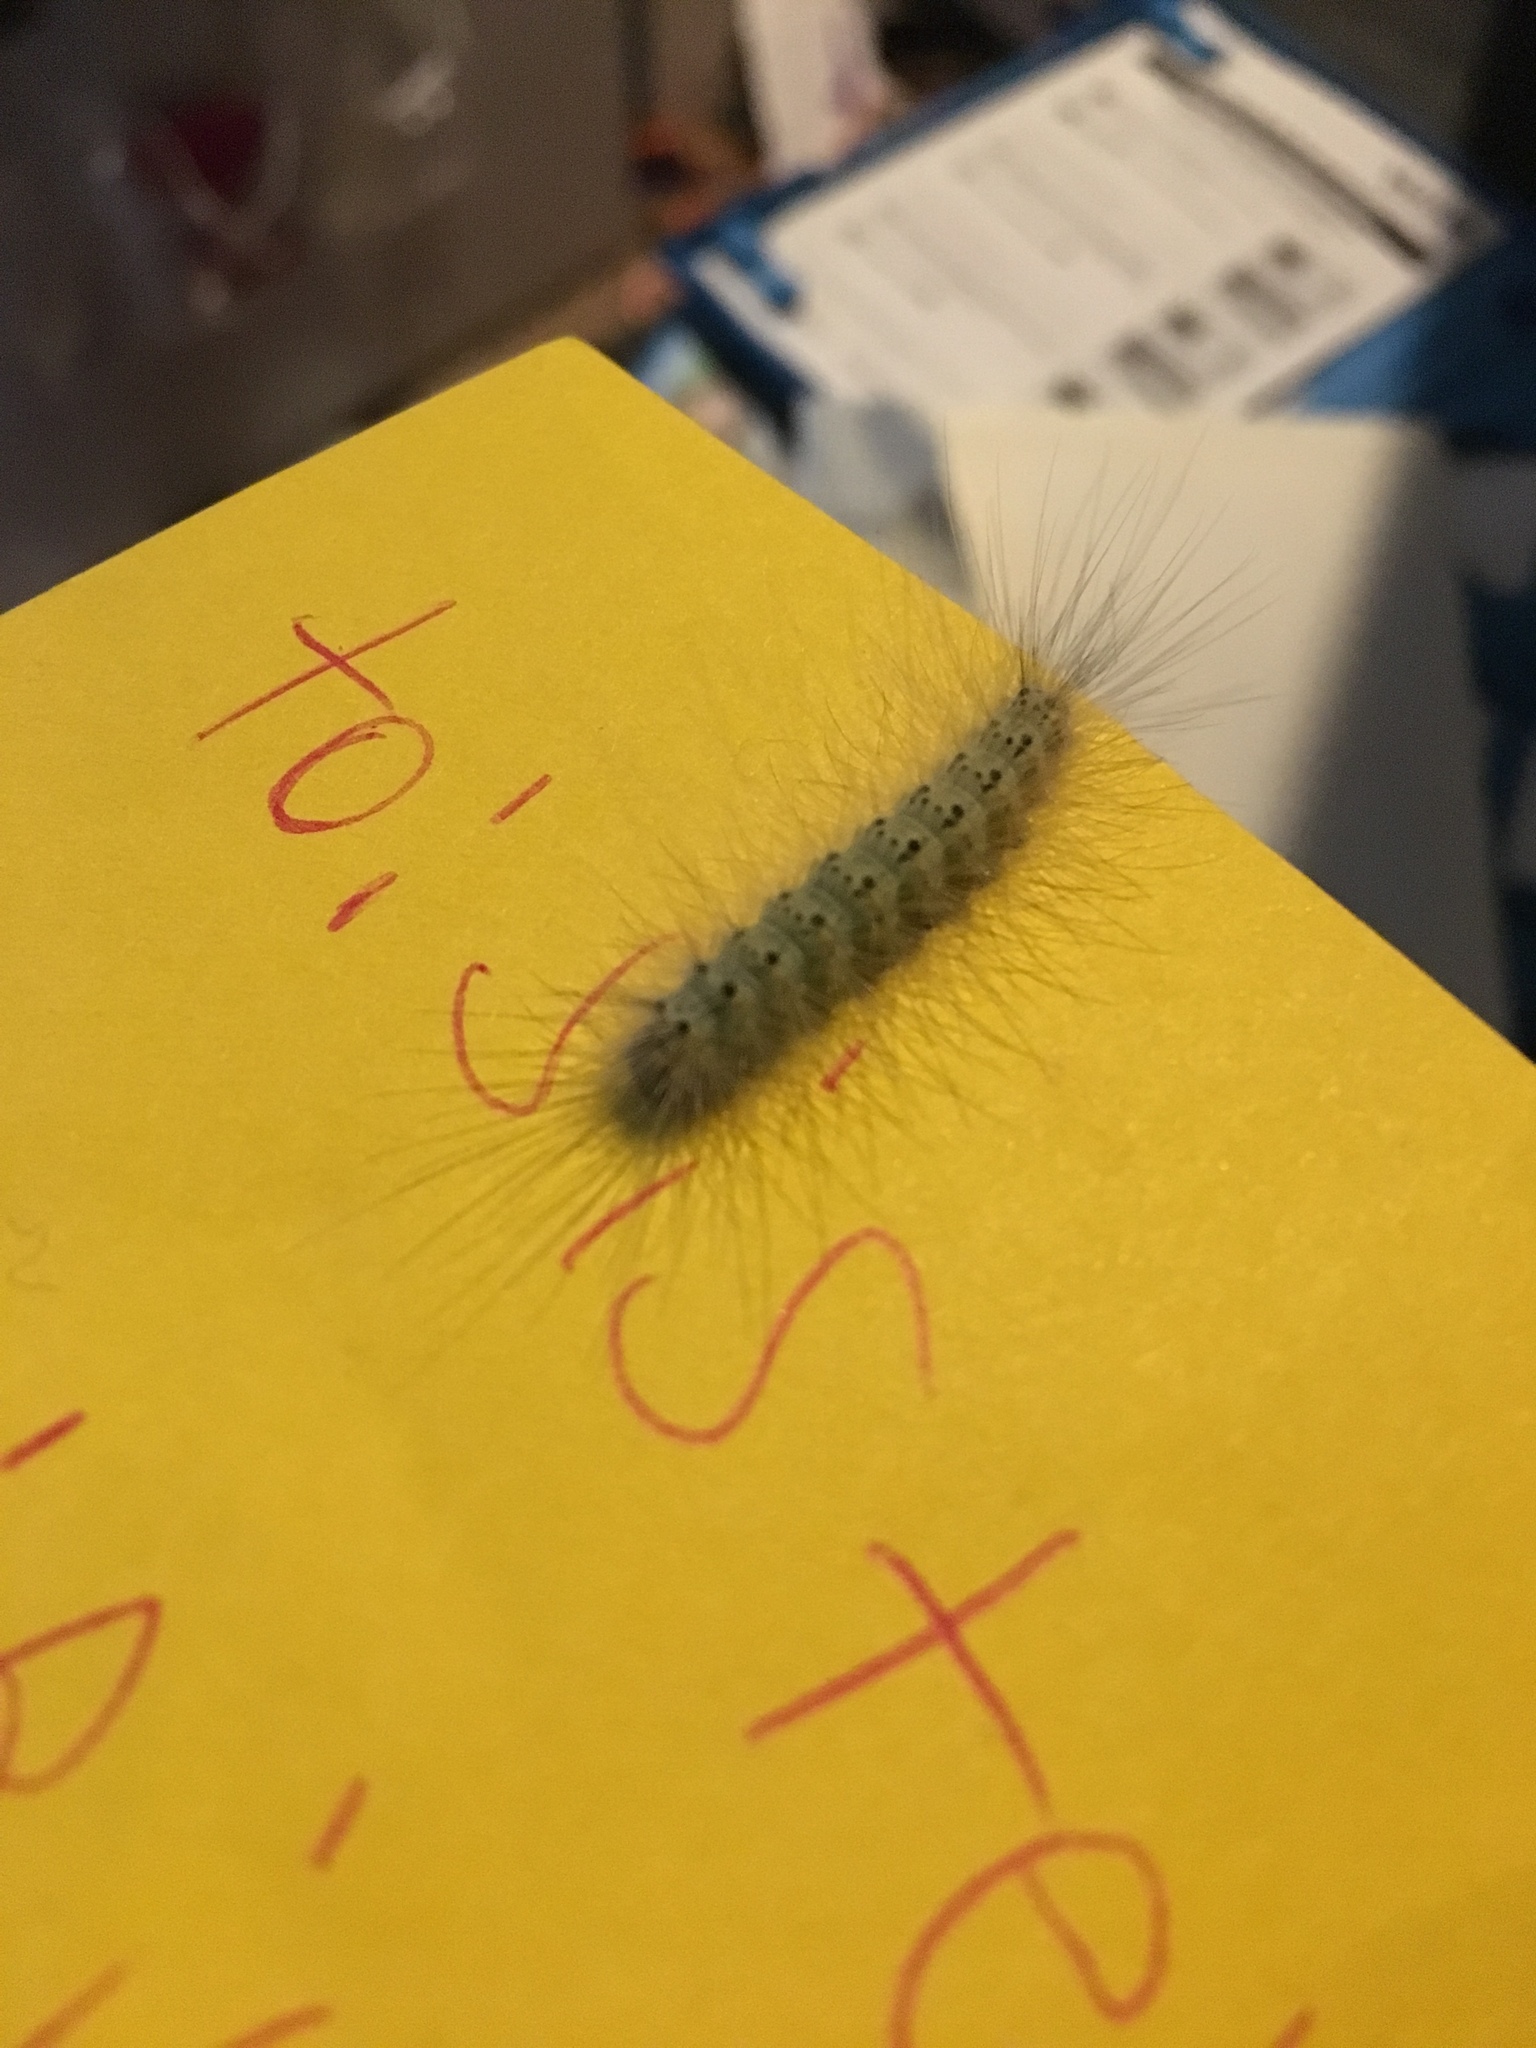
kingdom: Animalia
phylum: Arthropoda
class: Insecta
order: Lepidoptera
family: Erebidae
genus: Hyphantria
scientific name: Hyphantria cunea
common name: American white moth
